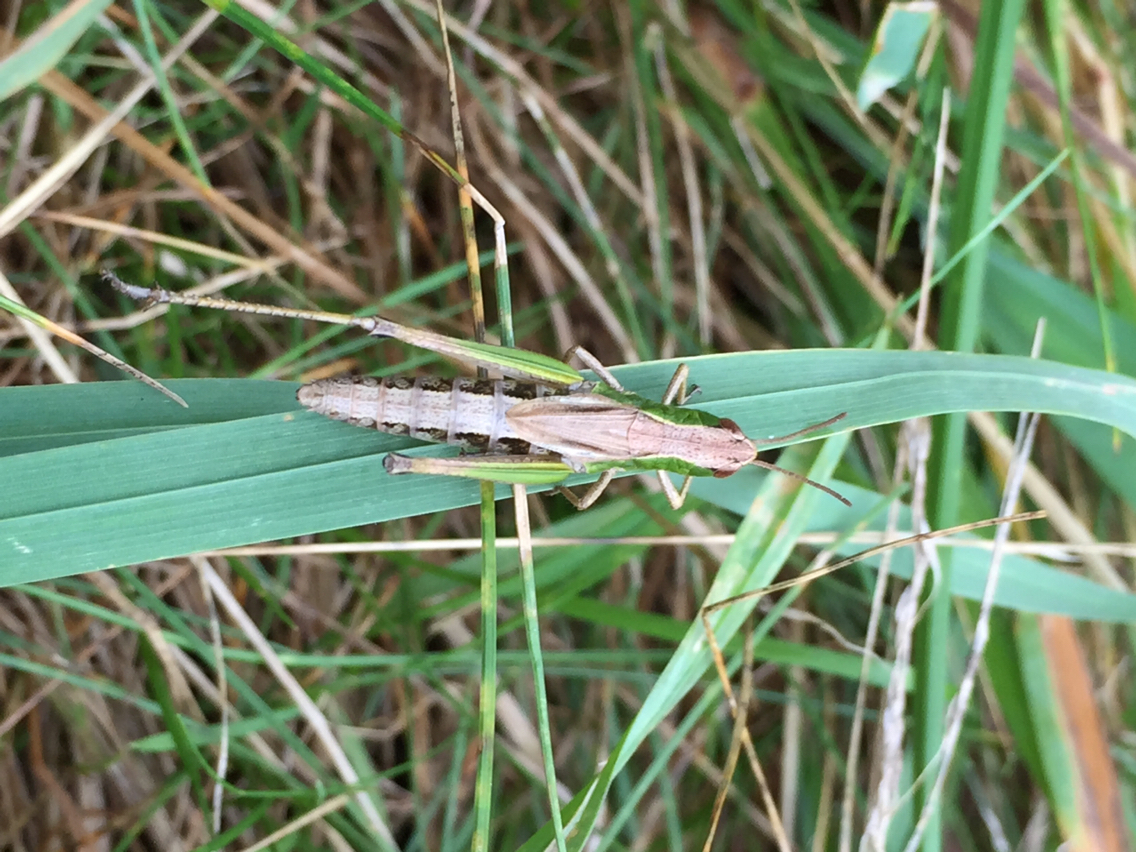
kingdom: Animalia
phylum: Arthropoda
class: Insecta
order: Orthoptera
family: Acrididae
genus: Pseudochorthippus
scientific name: Pseudochorthippus parallelus
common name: Meadow grasshopper
